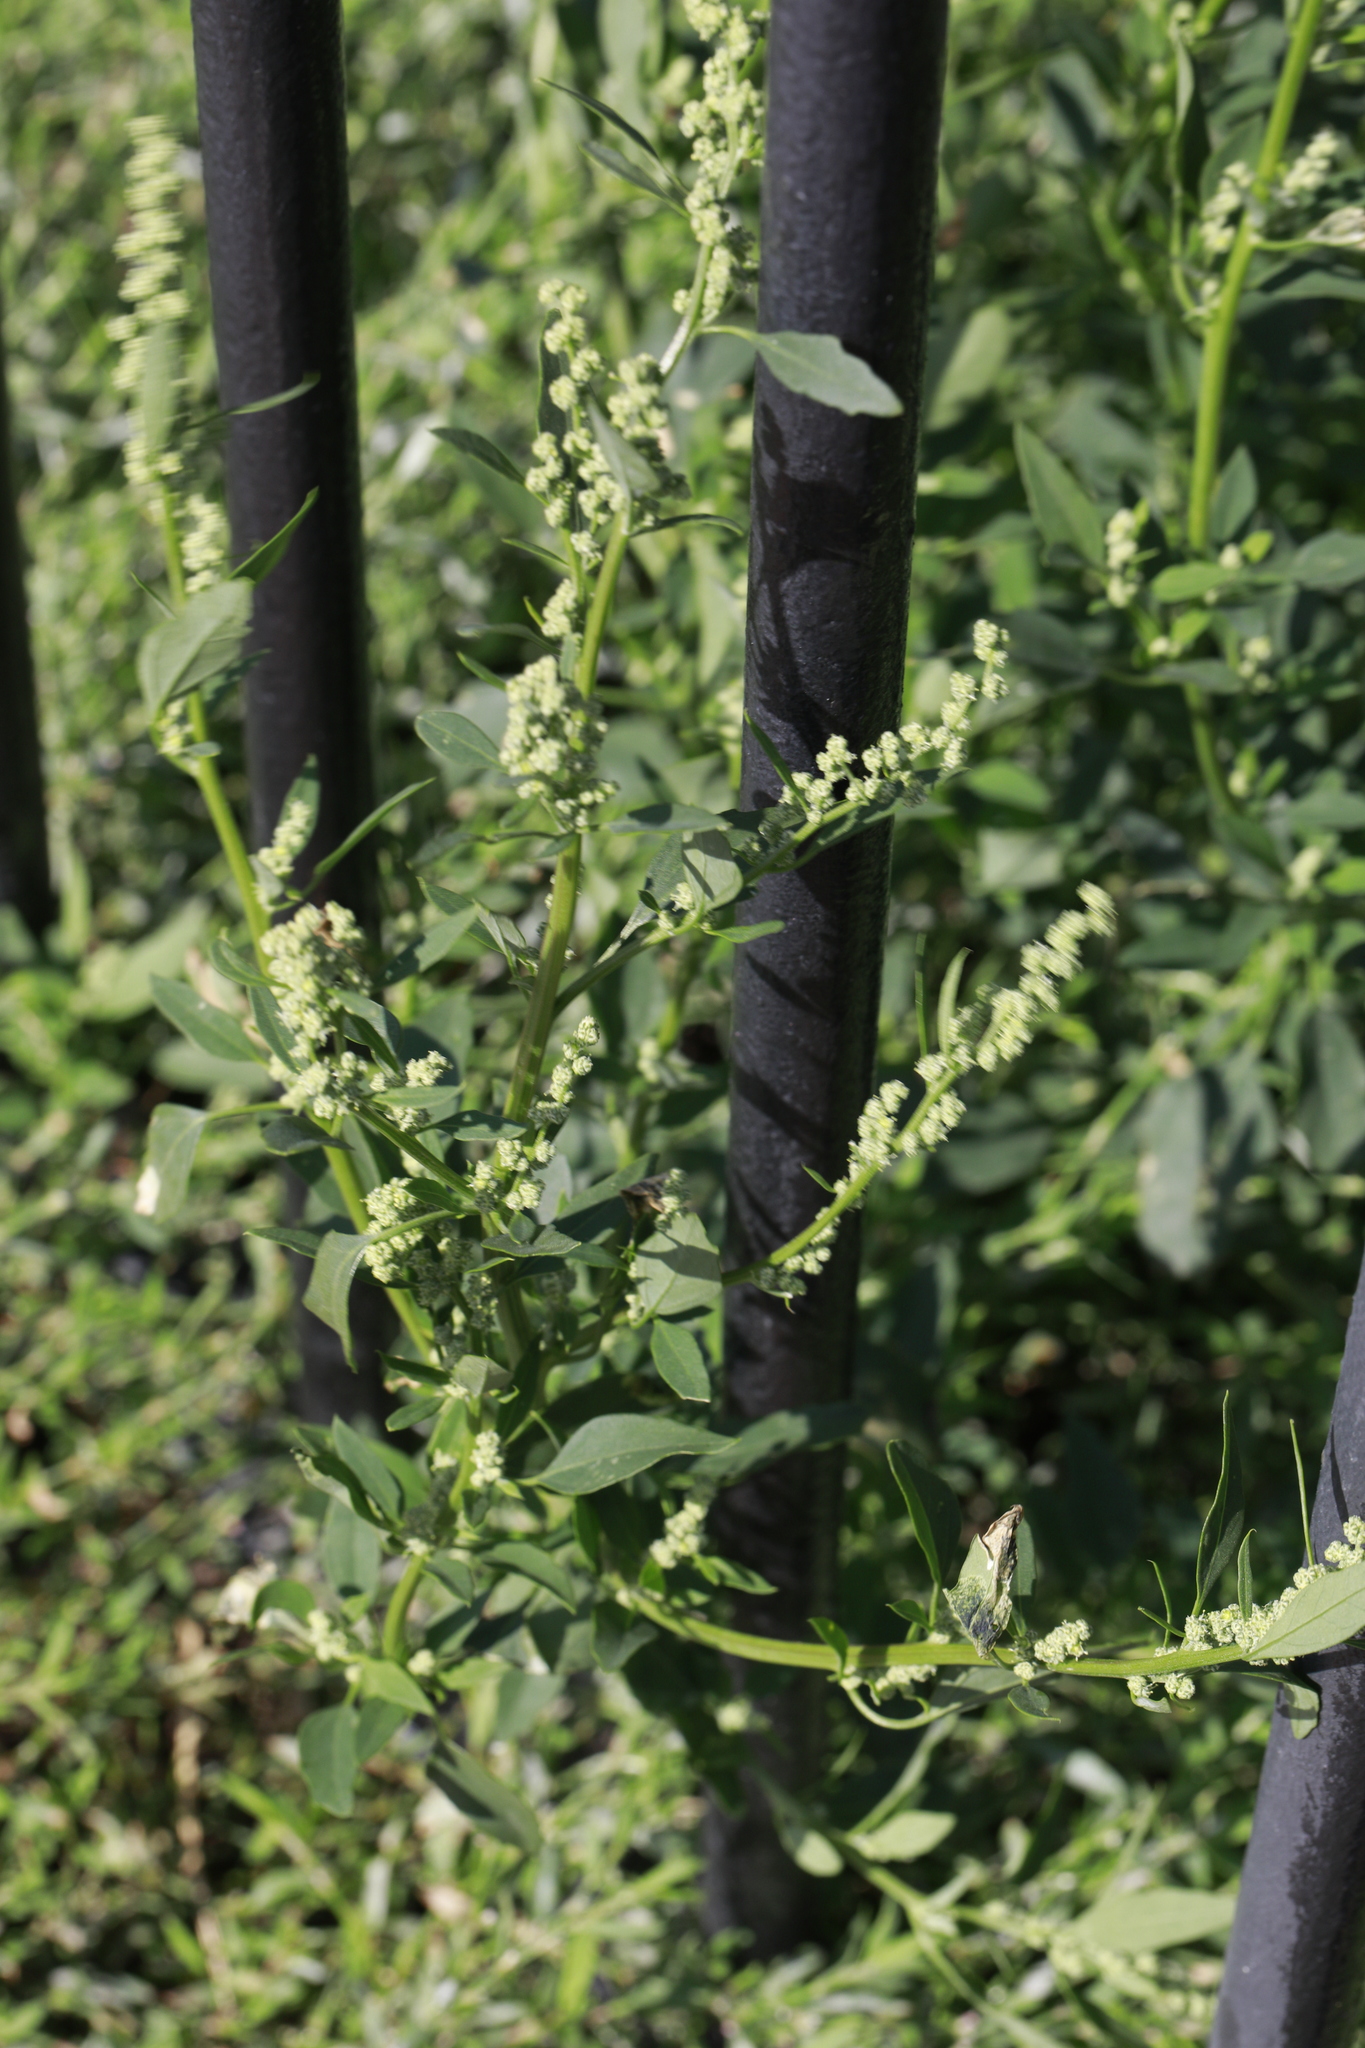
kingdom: Plantae
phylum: Tracheophyta
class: Magnoliopsida
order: Caryophyllales
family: Amaranthaceae
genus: Chenopodium
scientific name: Chenopodium album
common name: Fat-hen
